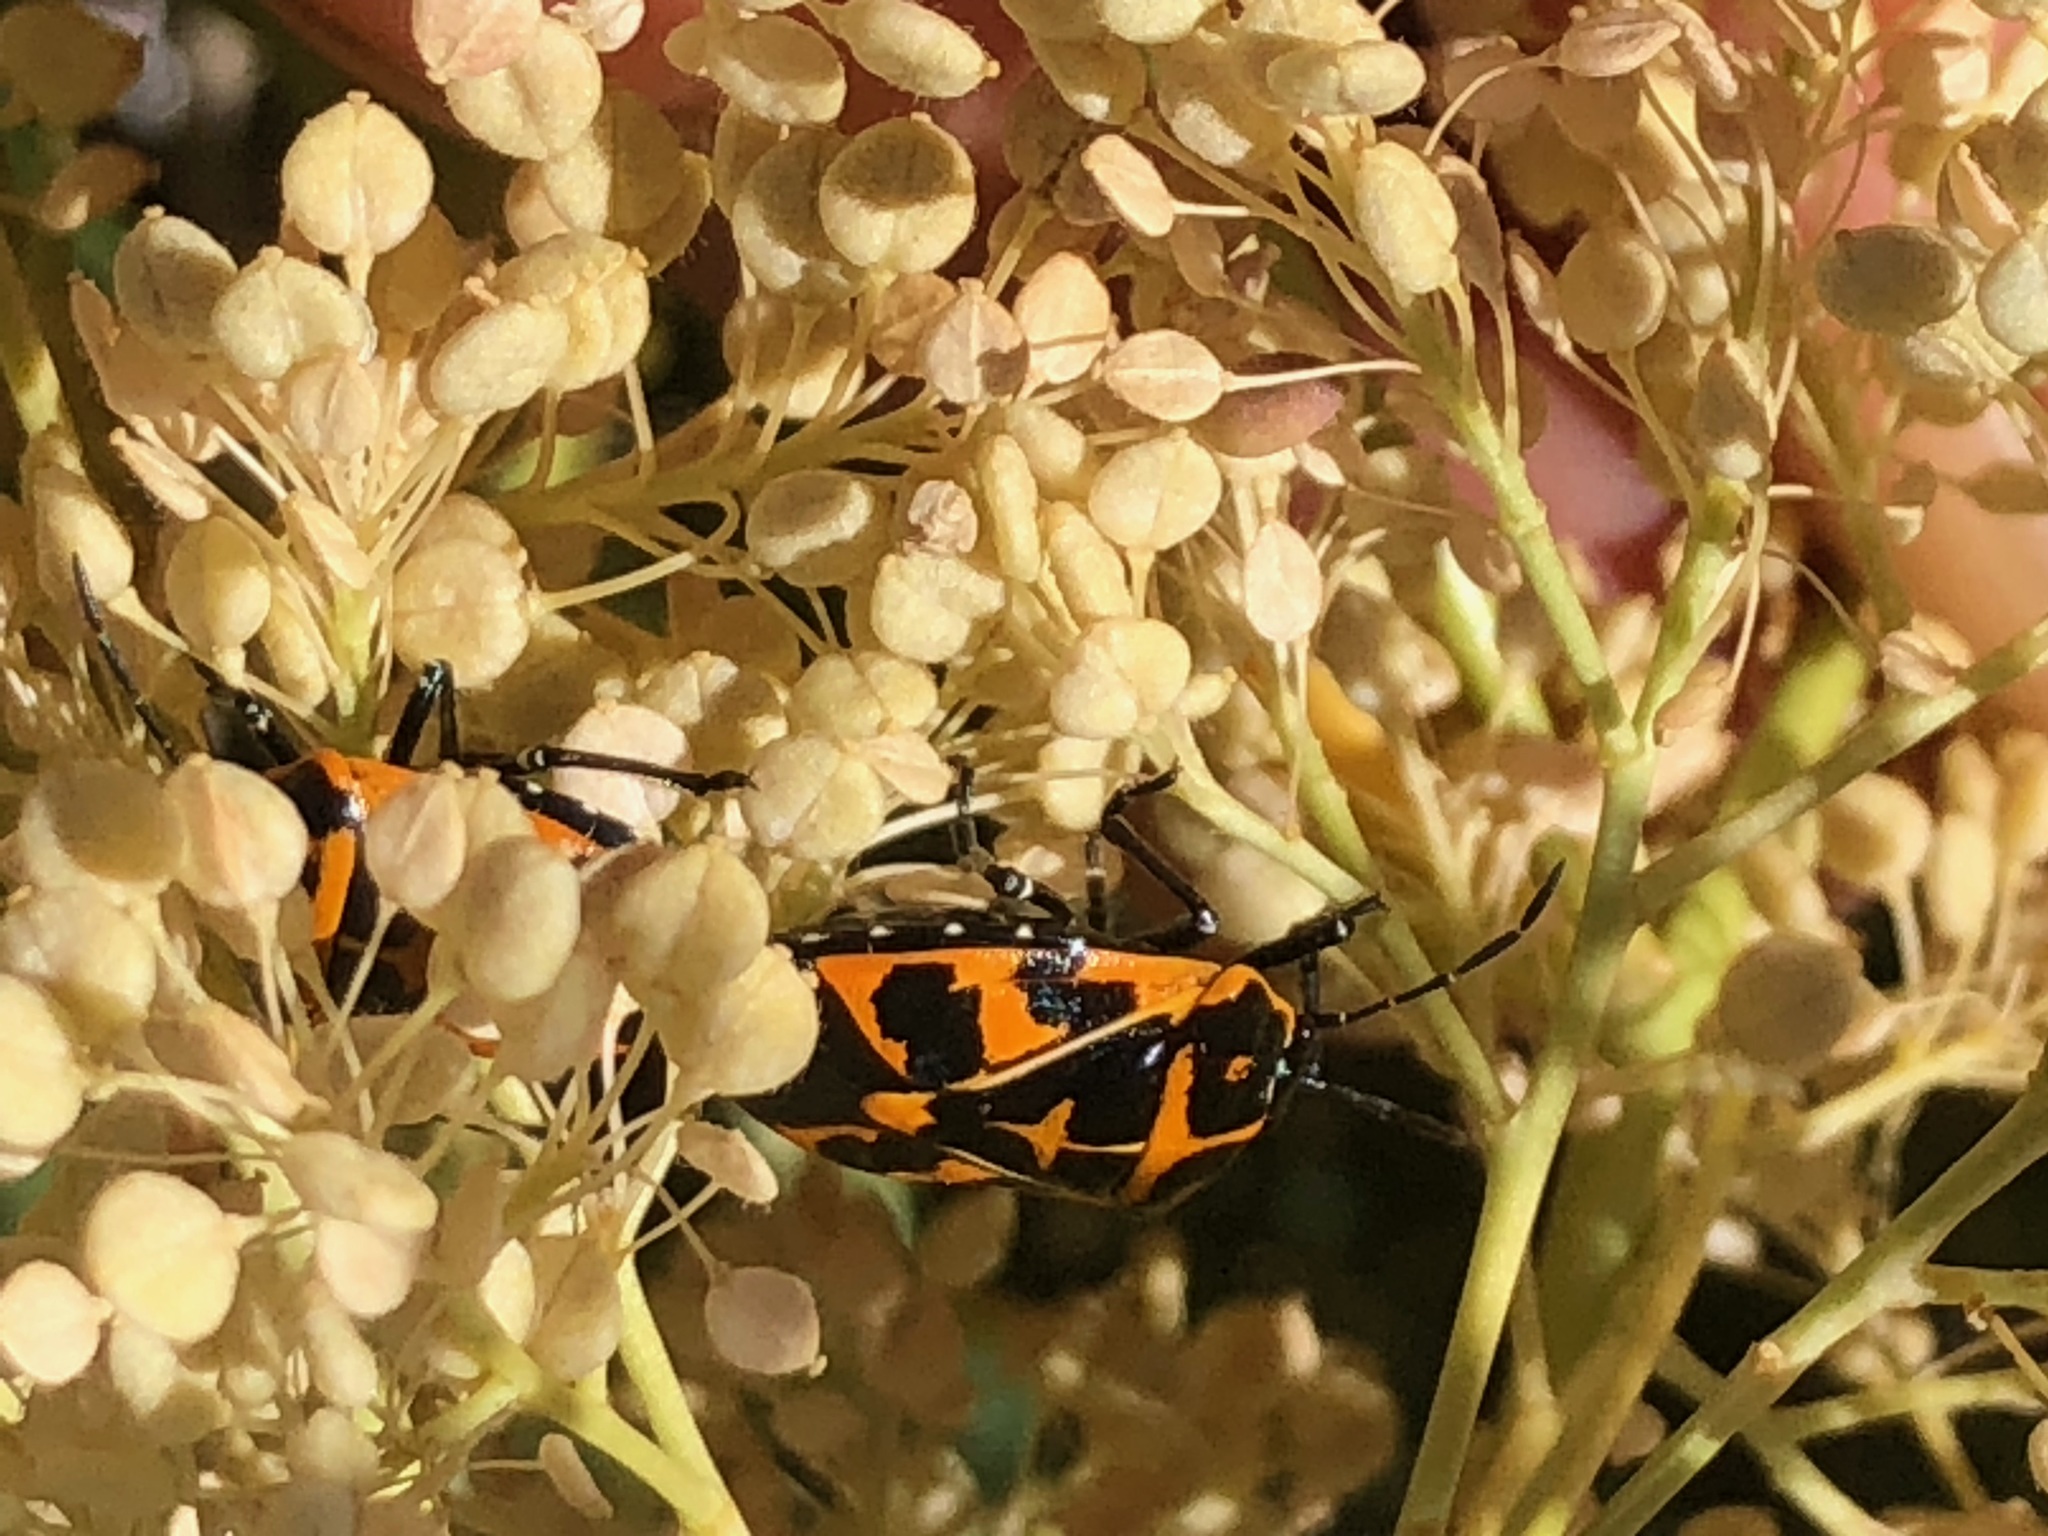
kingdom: Animalia
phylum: Arthropoda
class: Insecta
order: Hemiptera
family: Pentatomidae
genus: Murgantia
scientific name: Murgantia histrionica
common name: Harlequin bug
